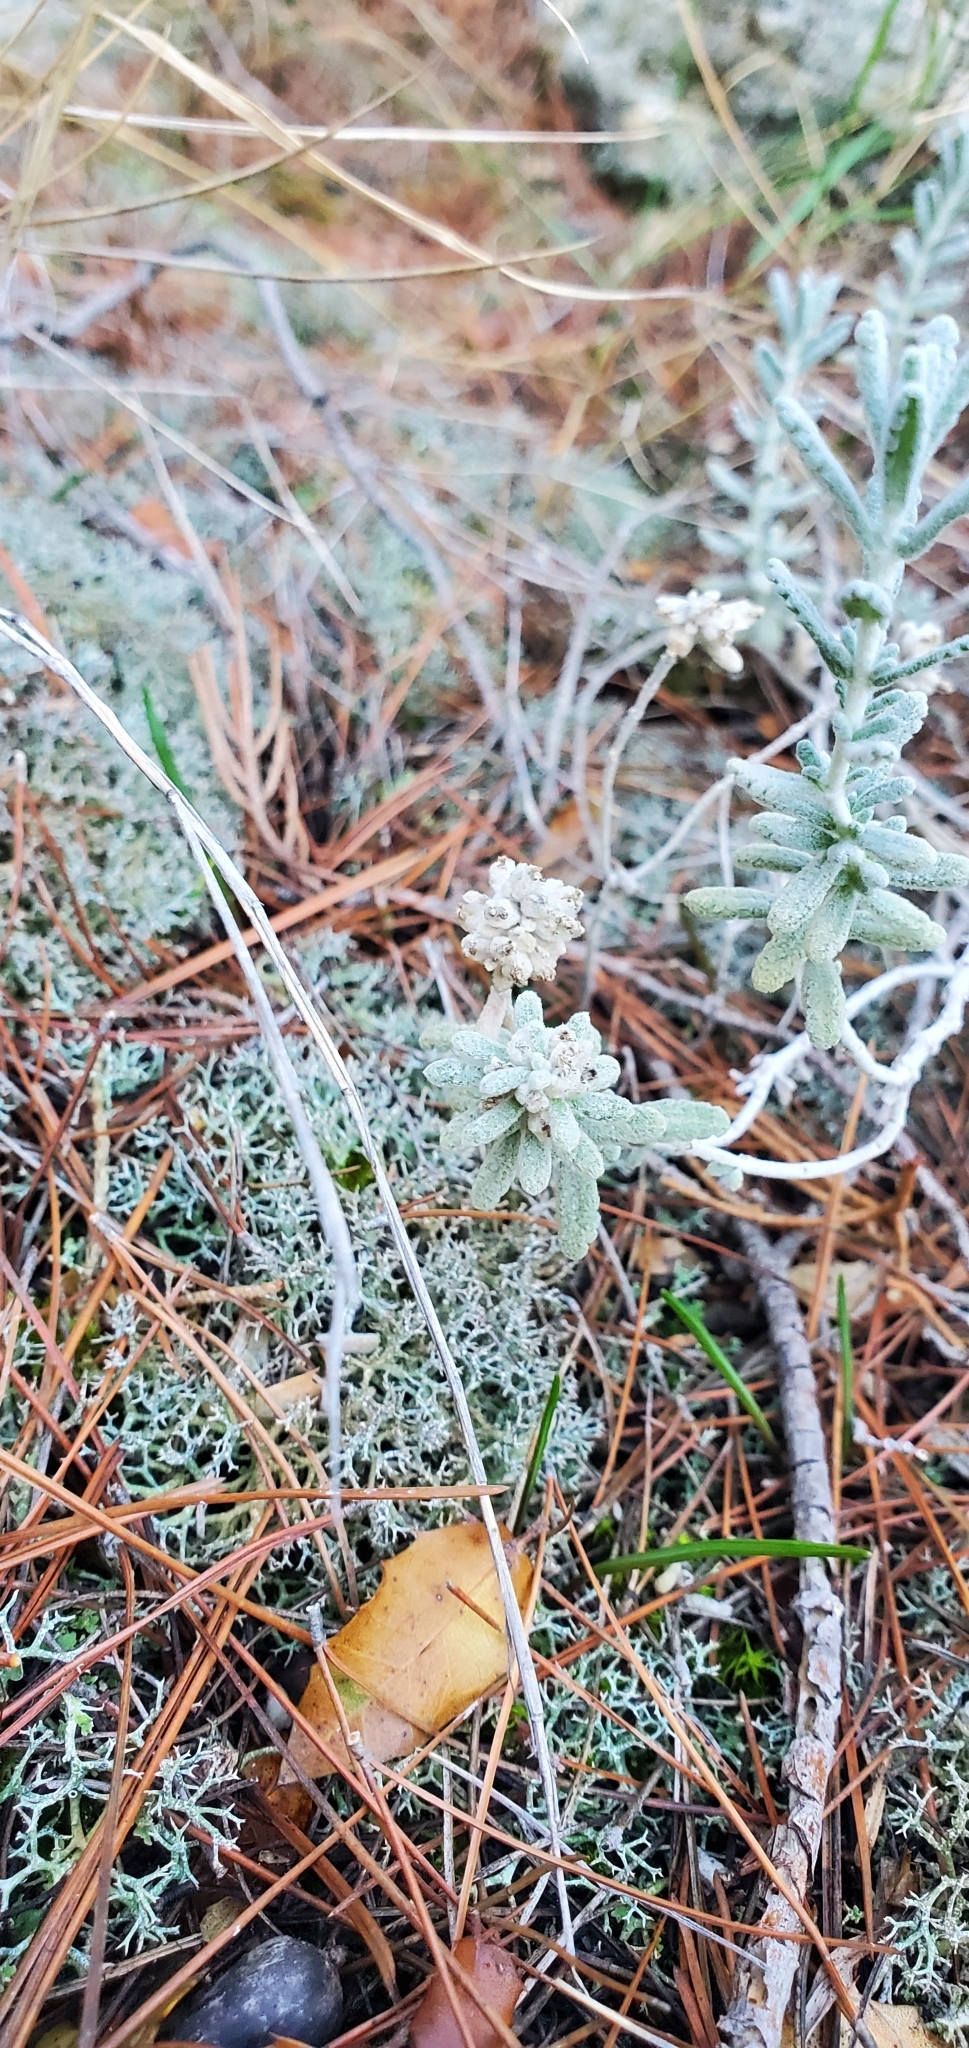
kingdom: Plantae
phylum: Tracheophyta
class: Magnoliopsida
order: Lamiales
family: Lamiaceae
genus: Teucrium
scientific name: Teucrium capitatum
